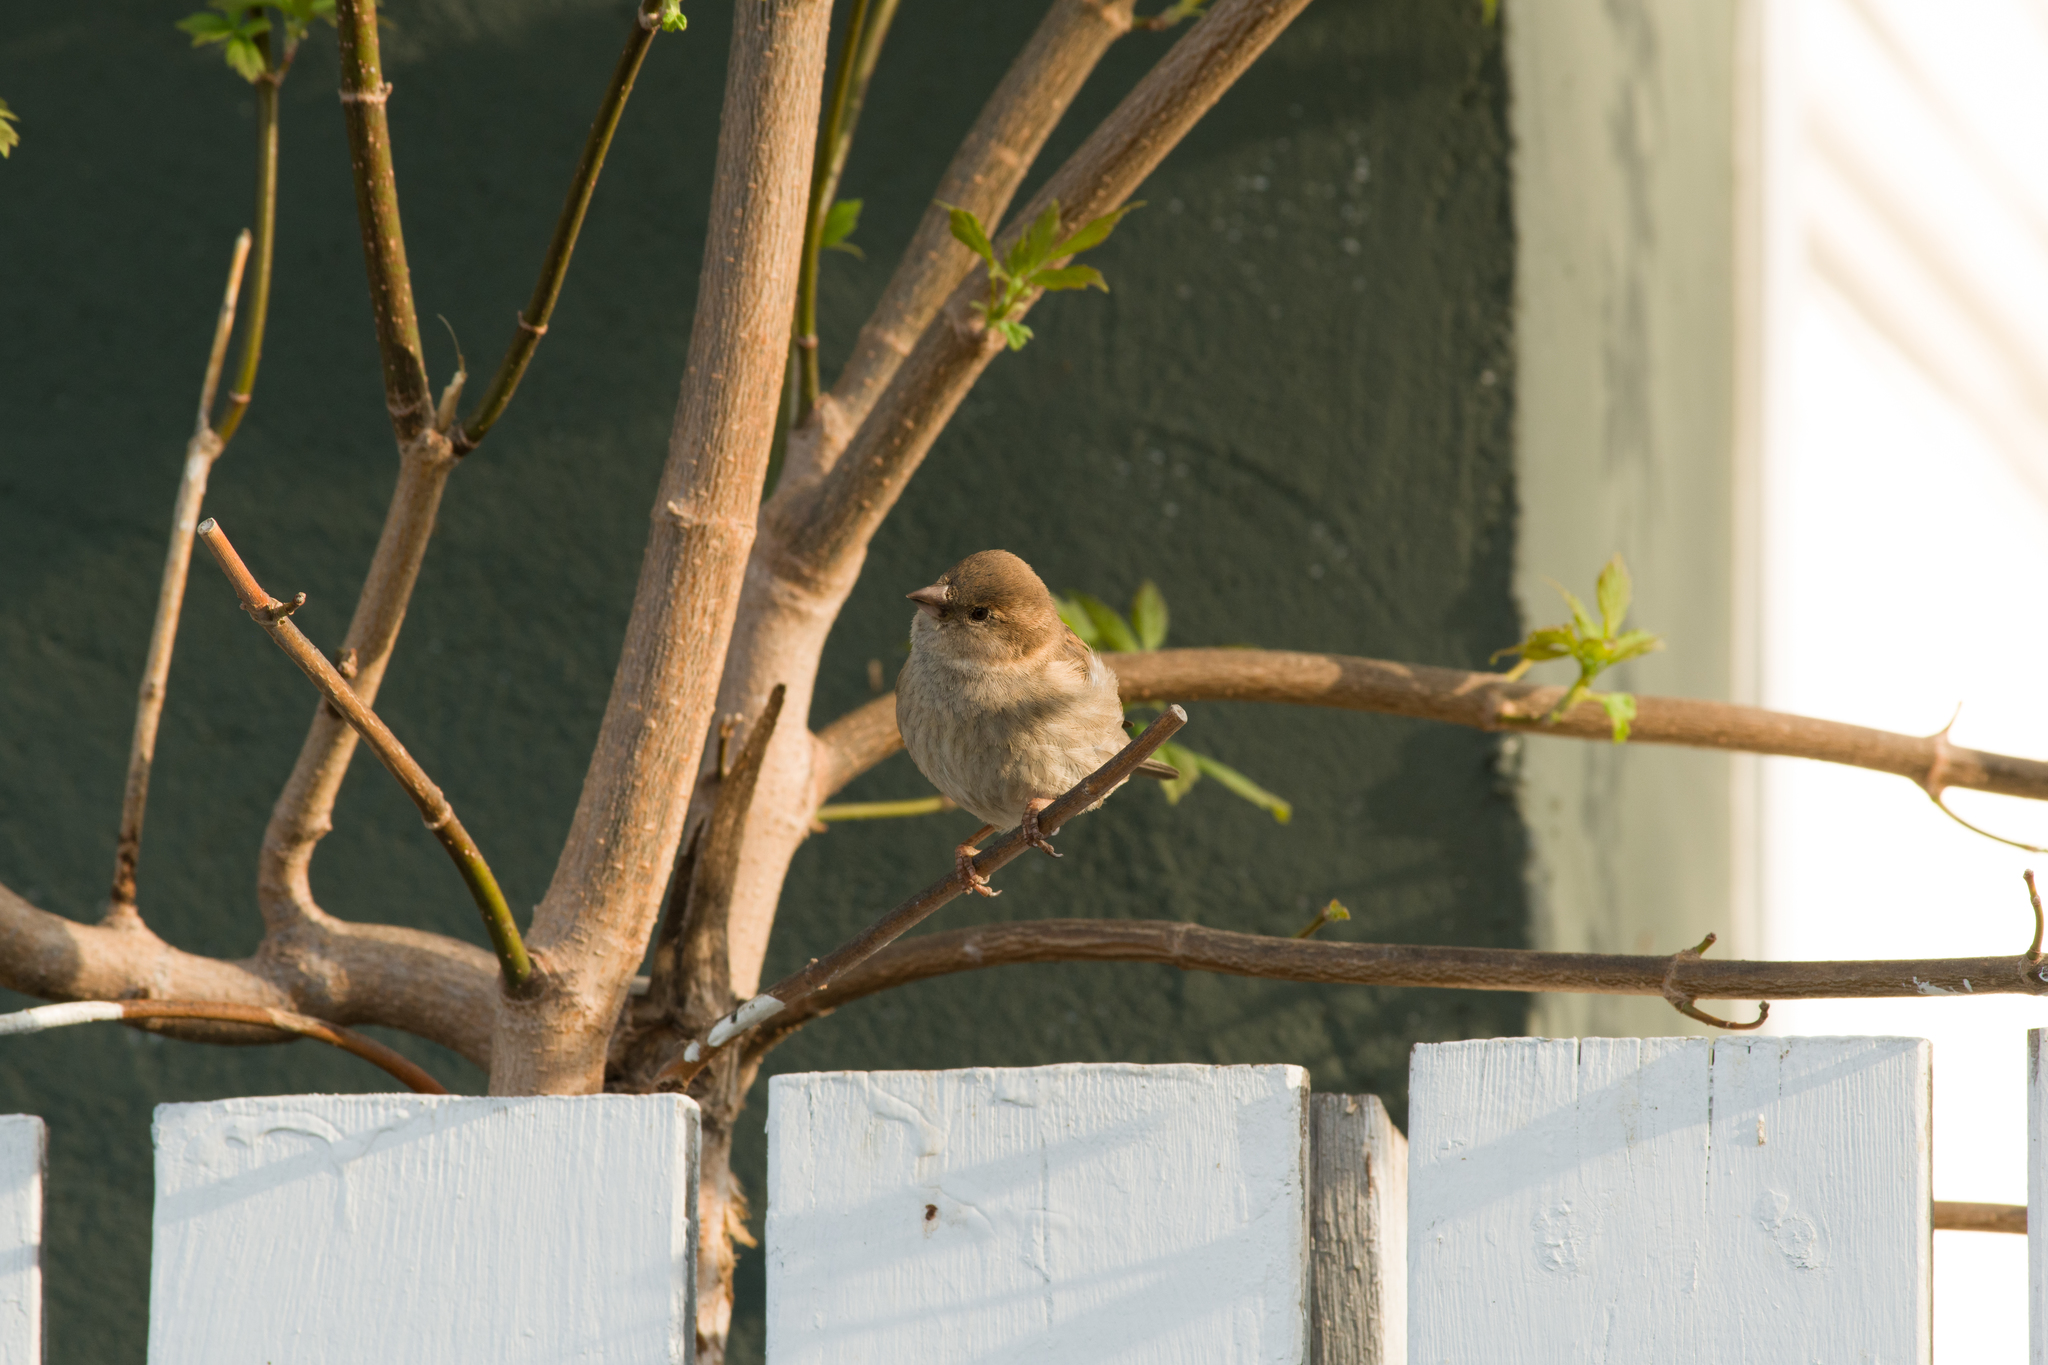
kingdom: Animalia
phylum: Chordata
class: Aves
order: Passeriformes
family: Passeridae
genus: Passer
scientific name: Passer domesticus
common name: House sparrow
